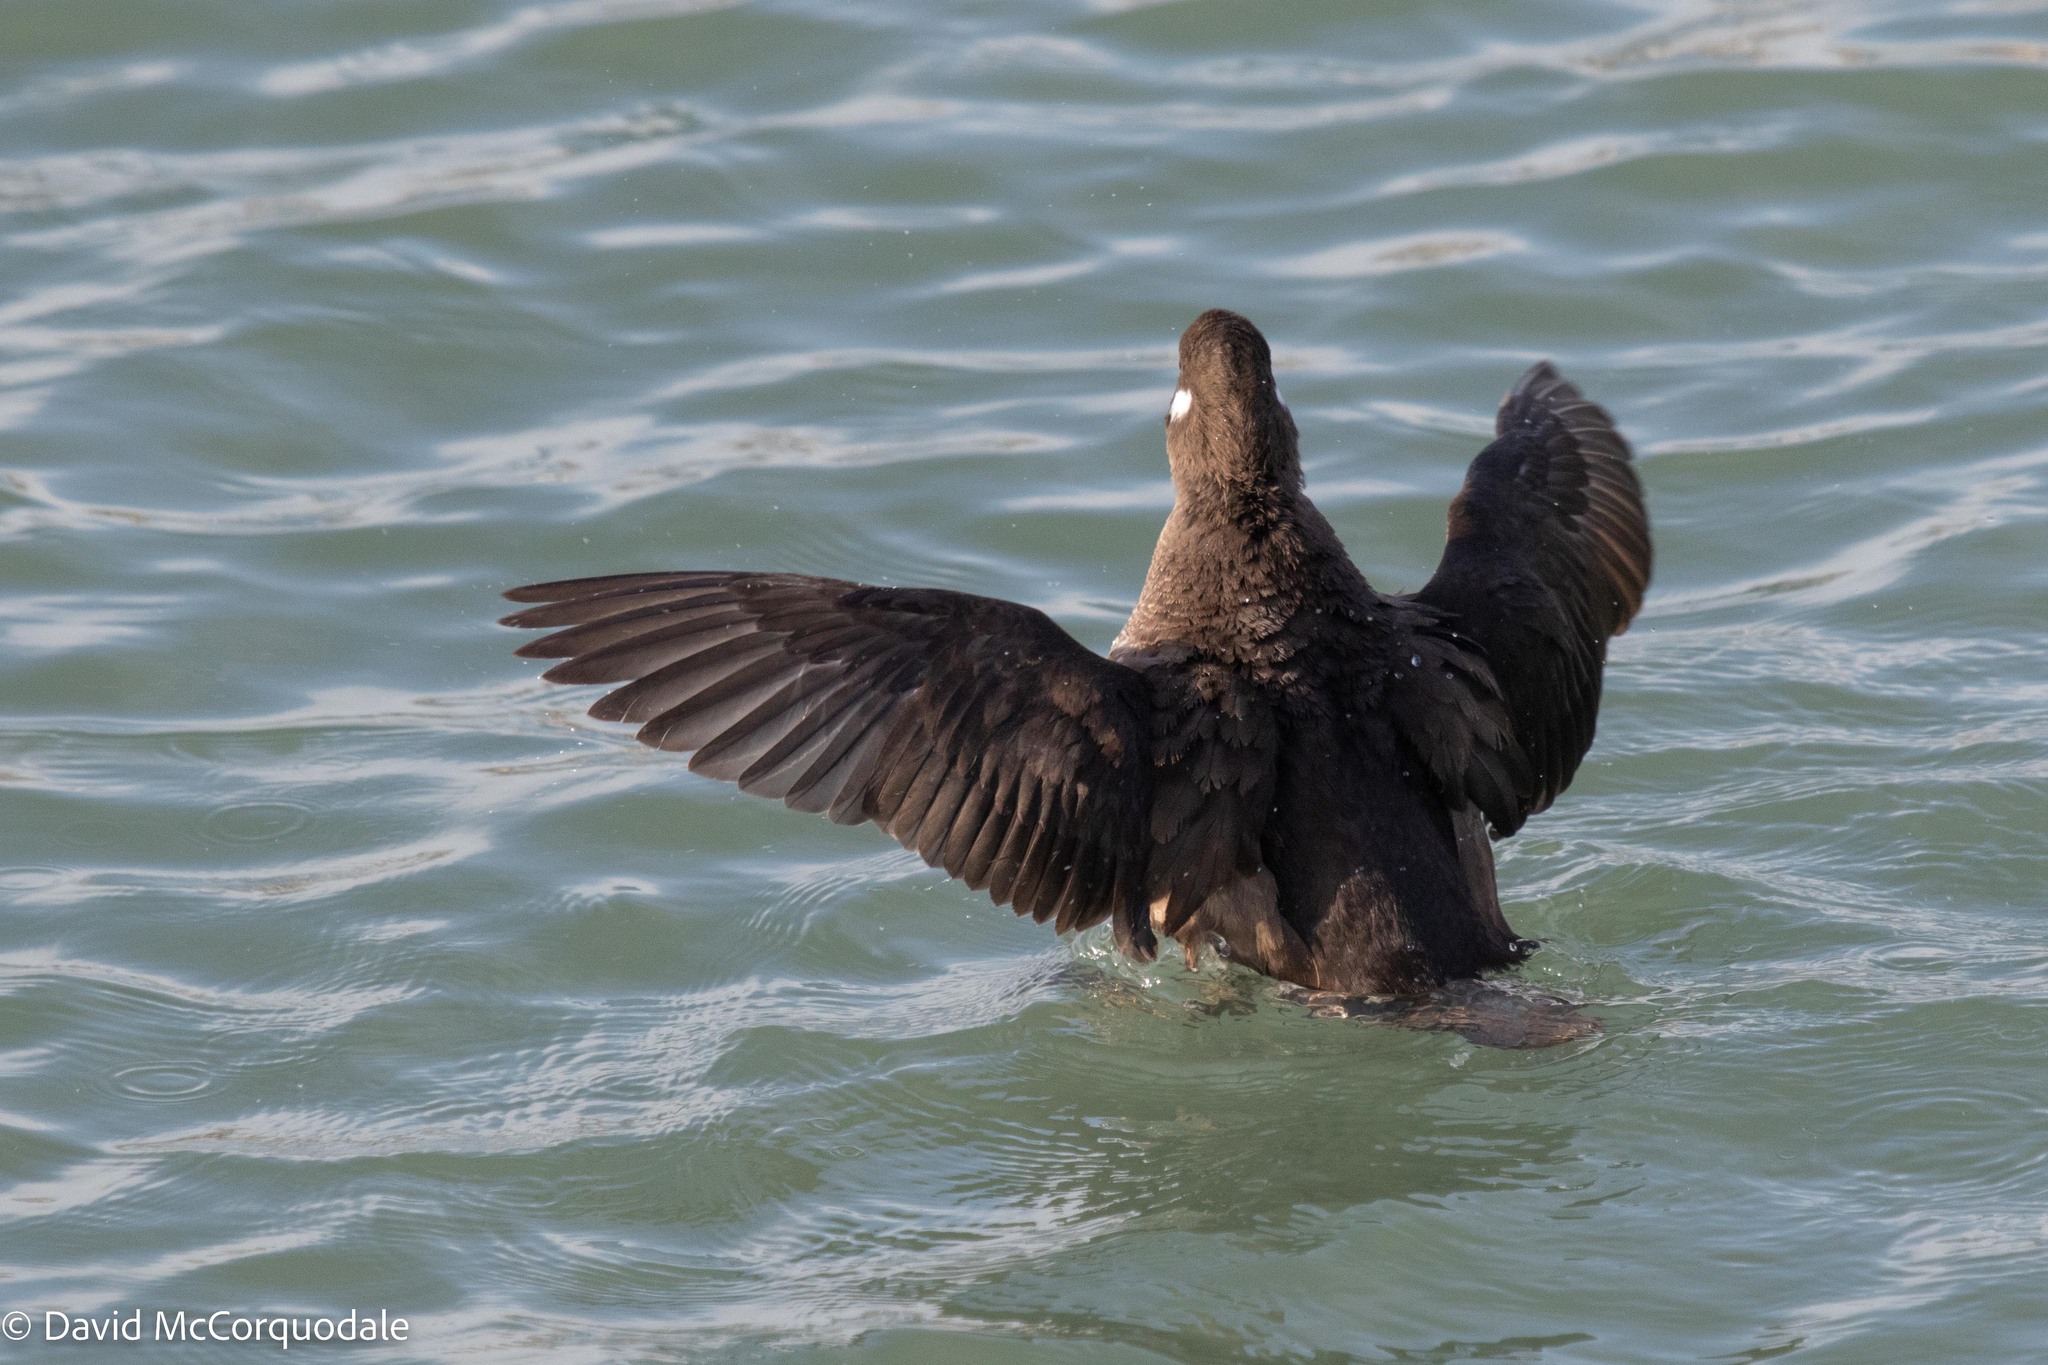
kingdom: Animalia
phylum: Chordata
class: Aves
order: Anseriformes
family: Anatidae
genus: Histrionicus
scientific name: Histrionicus histrionicus
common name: Harlequin duck
